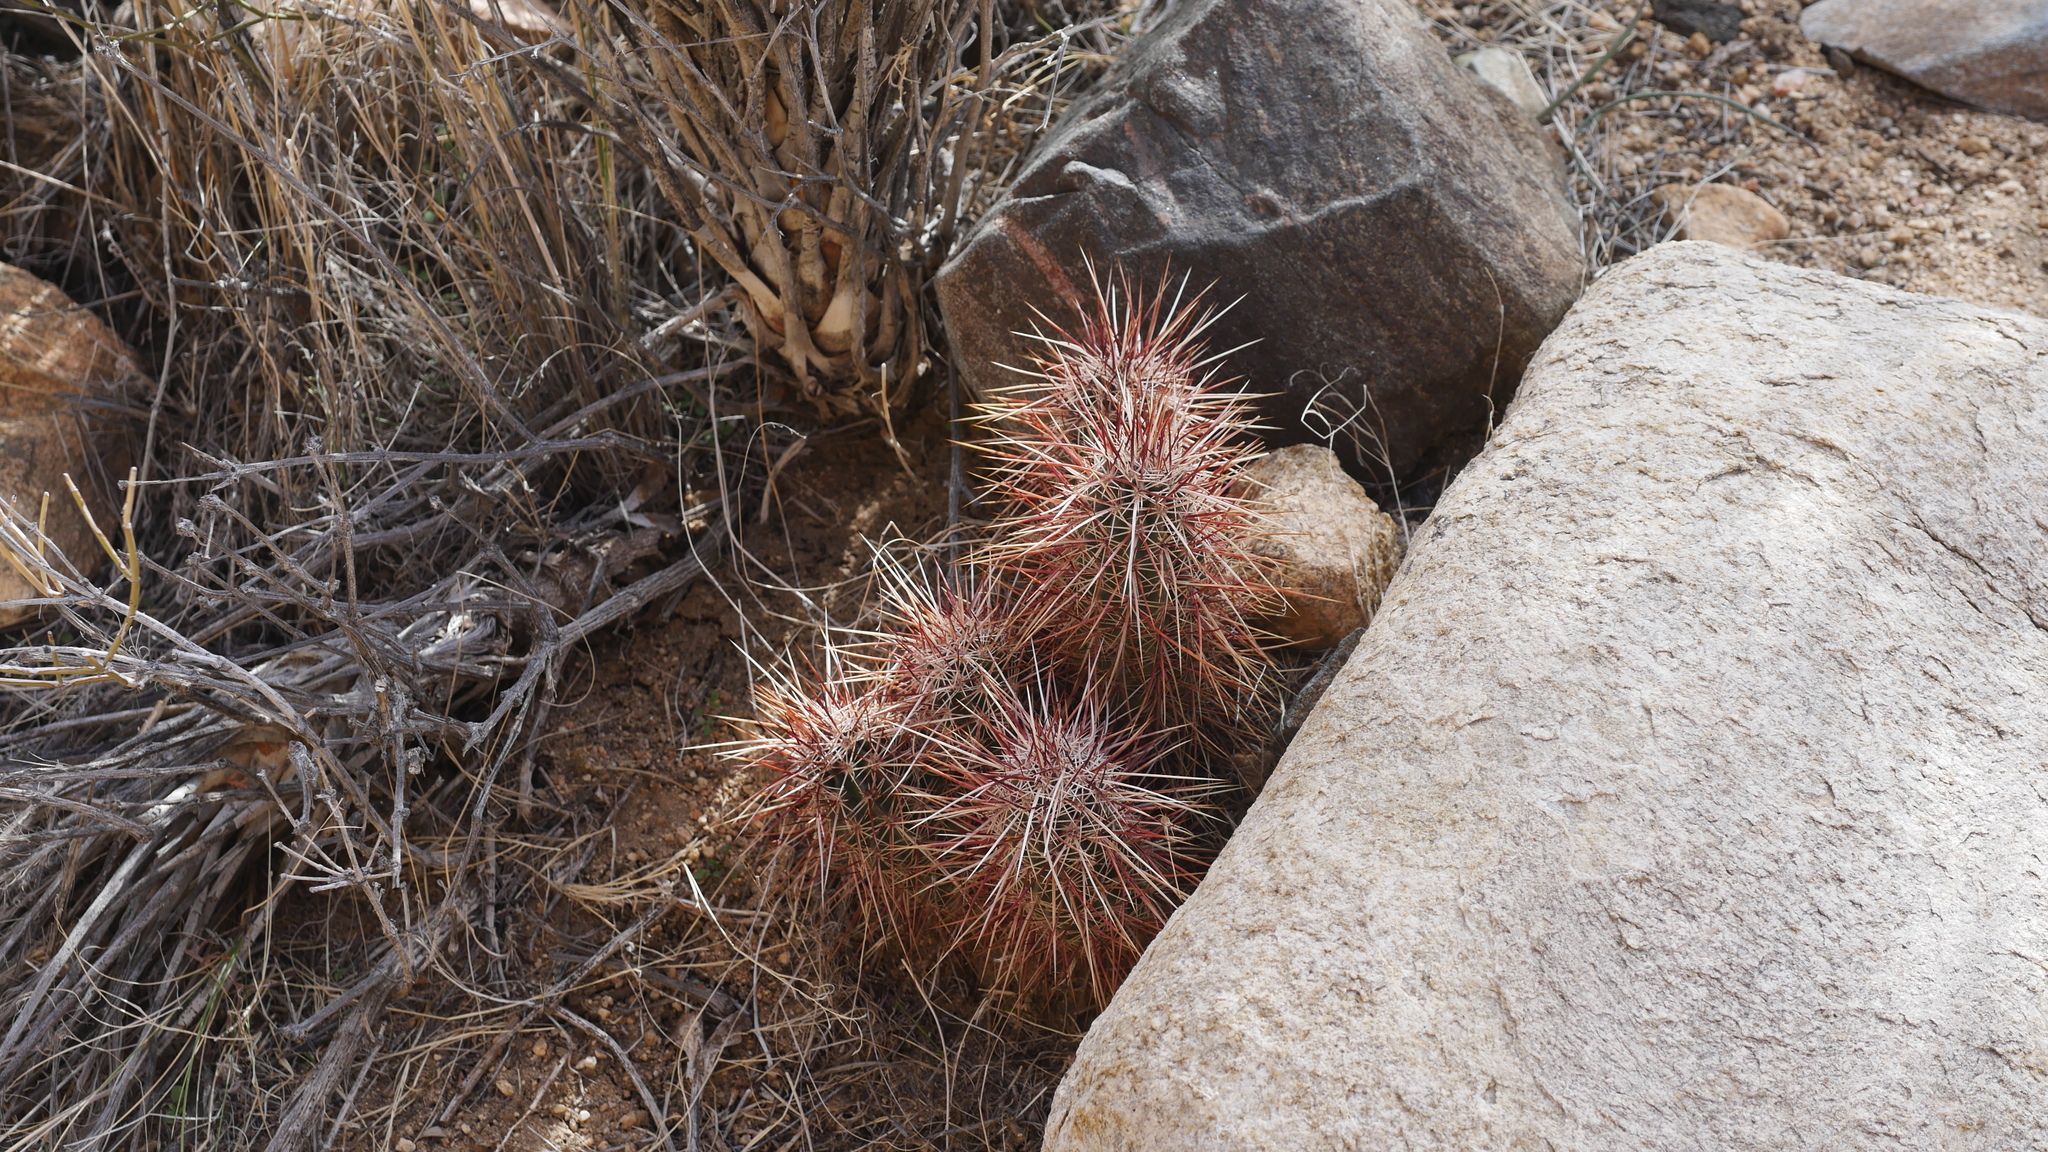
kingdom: Plantae
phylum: Tracheophyta
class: Magnoliopsida
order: Caryophyllales
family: Cactaceae
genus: Echinocereus
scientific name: Echinocereus engelmannii
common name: Engelmann's hedgehog cactus
